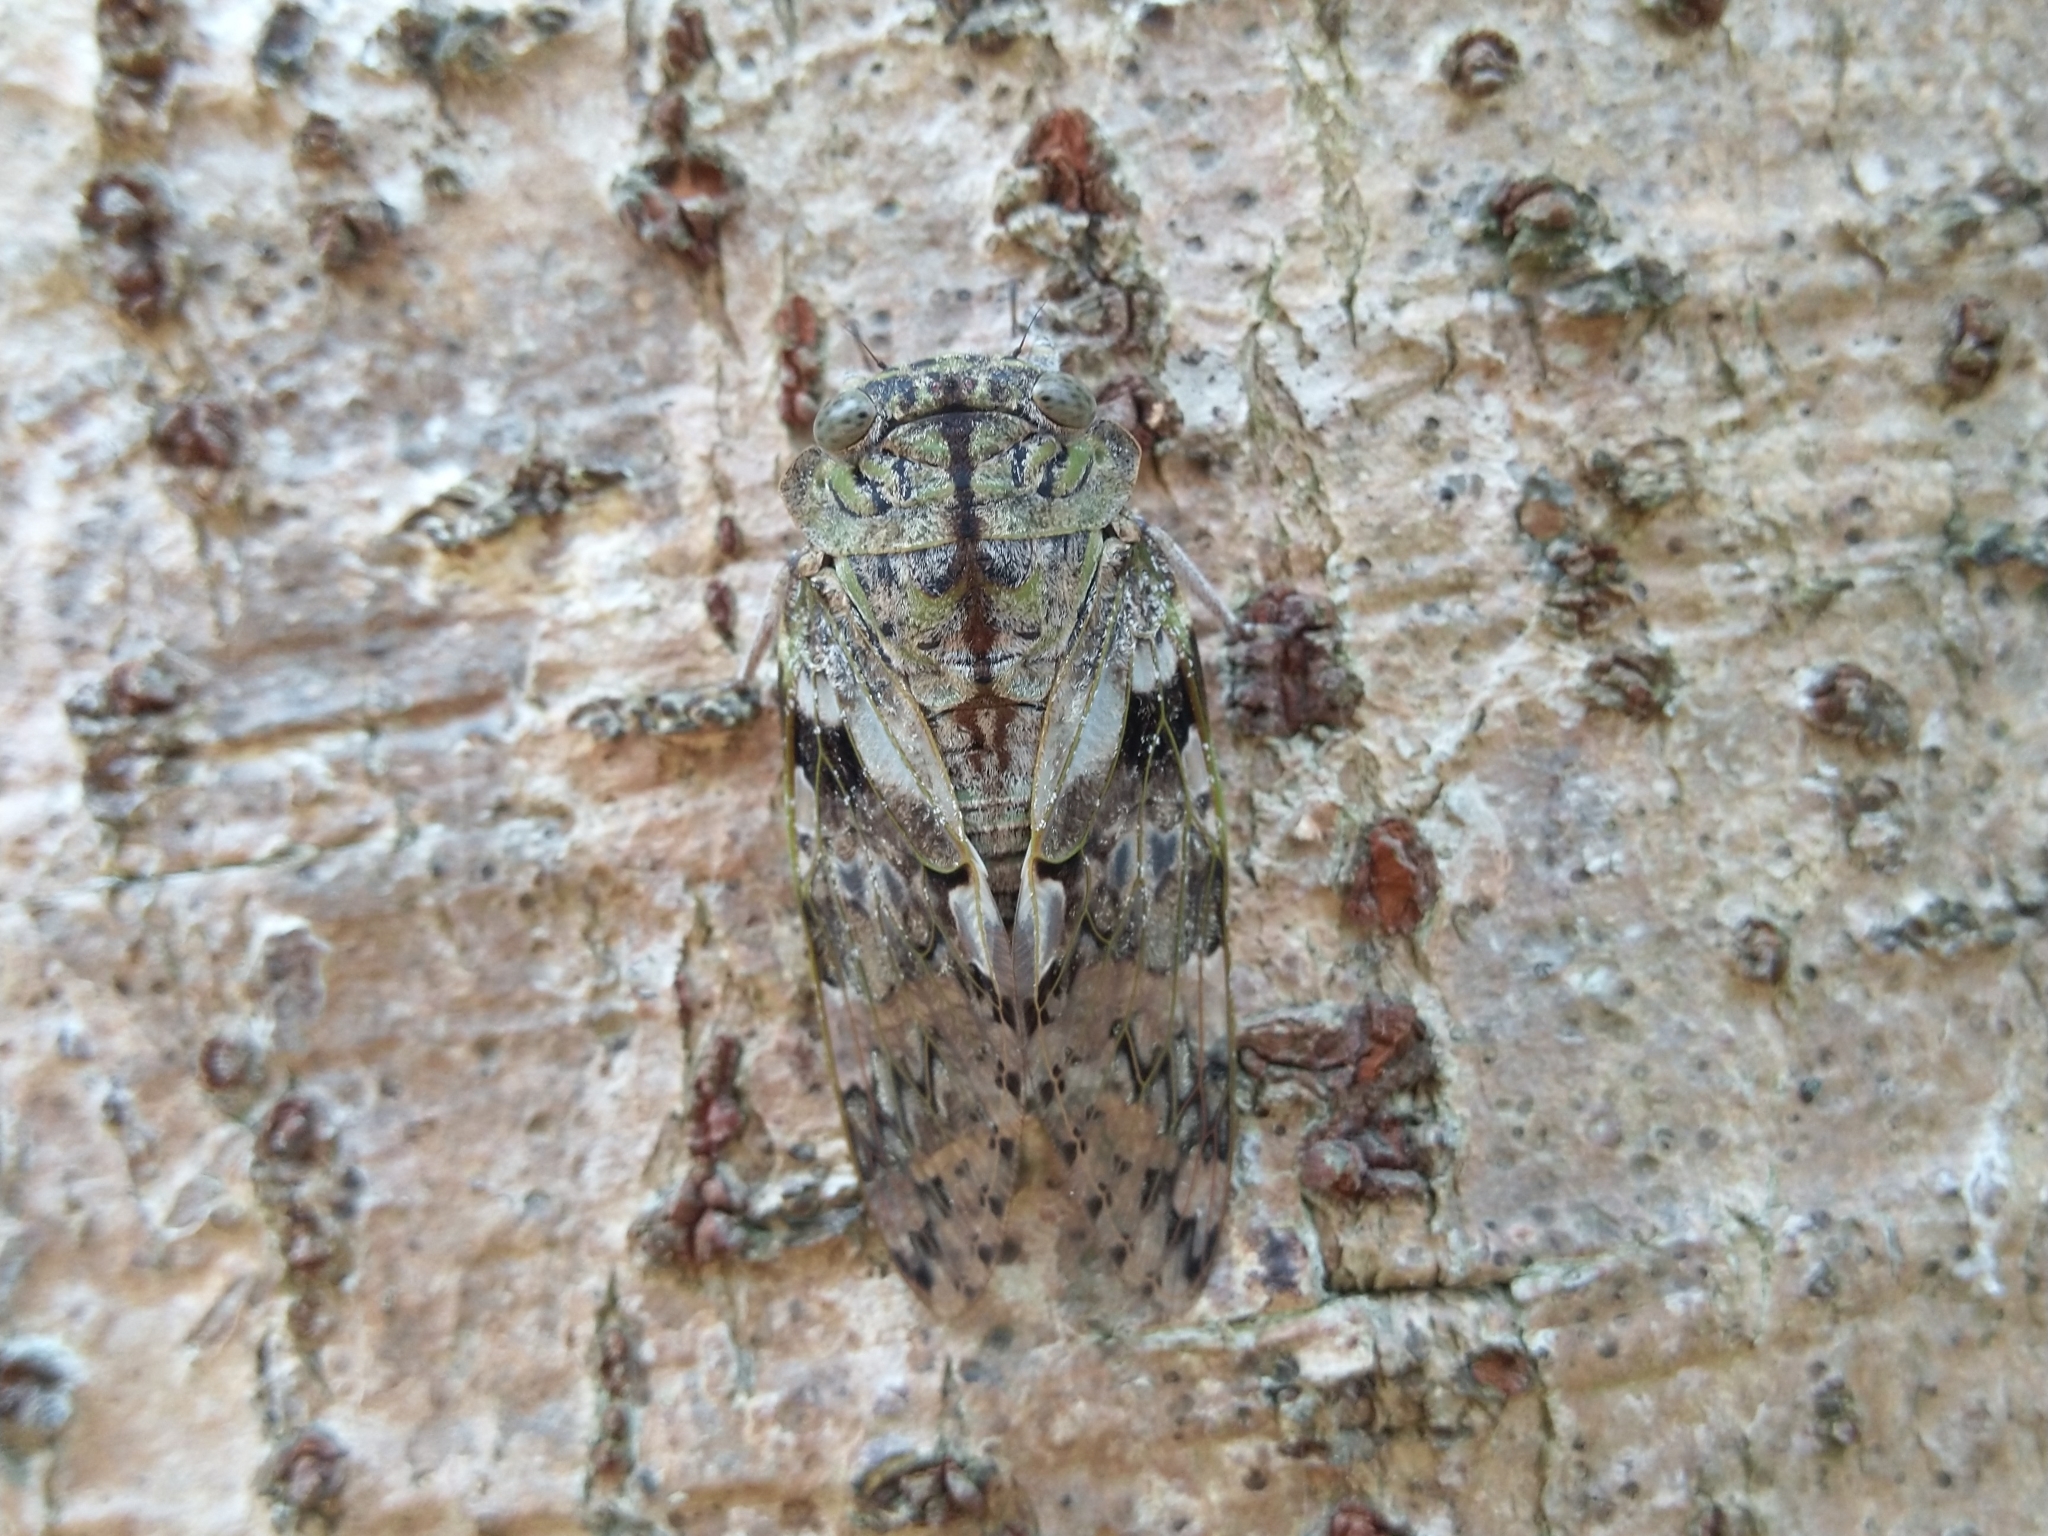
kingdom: Animalia
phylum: Arthropoda
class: Insecta
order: Hemiptera
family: Cicadidae
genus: Platypleura
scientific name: Platypleura takasagona
